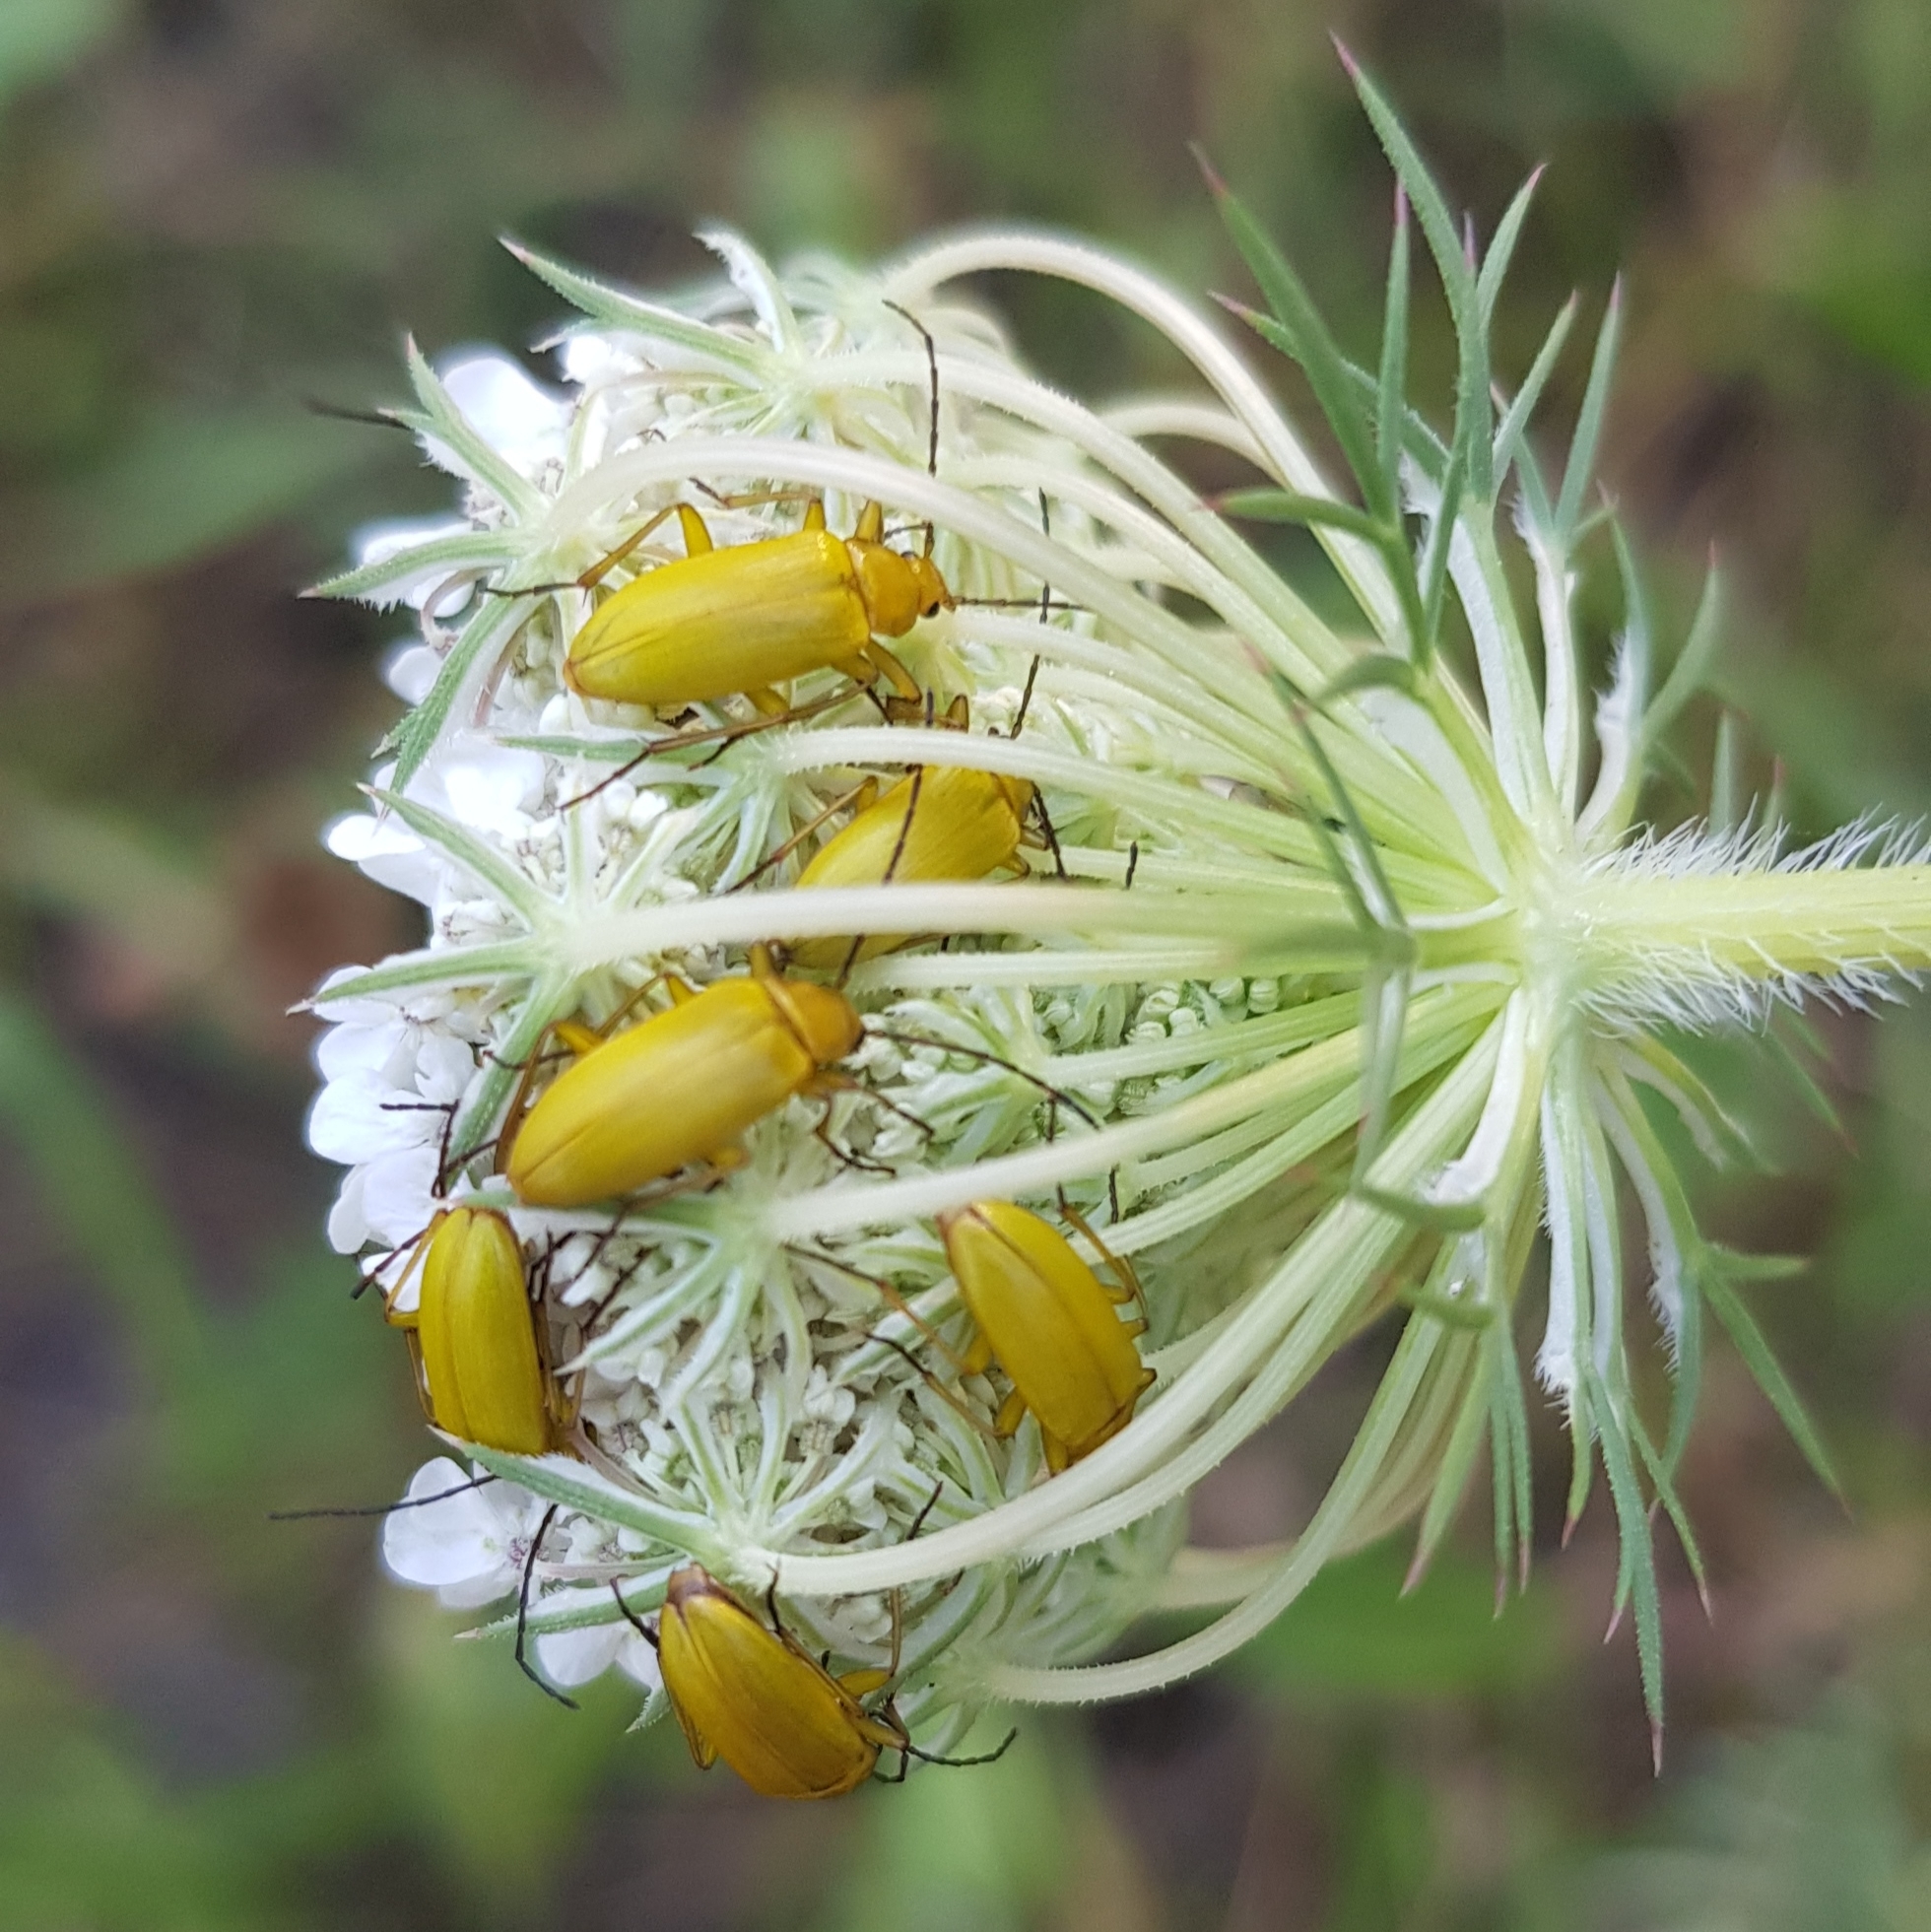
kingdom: Animalia
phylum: Arthropoda
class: Insecta
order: Coleoptera
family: Tenebrionidae
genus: Cteniopus
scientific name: Cteniopus sulphureus
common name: Sulphur beetle
